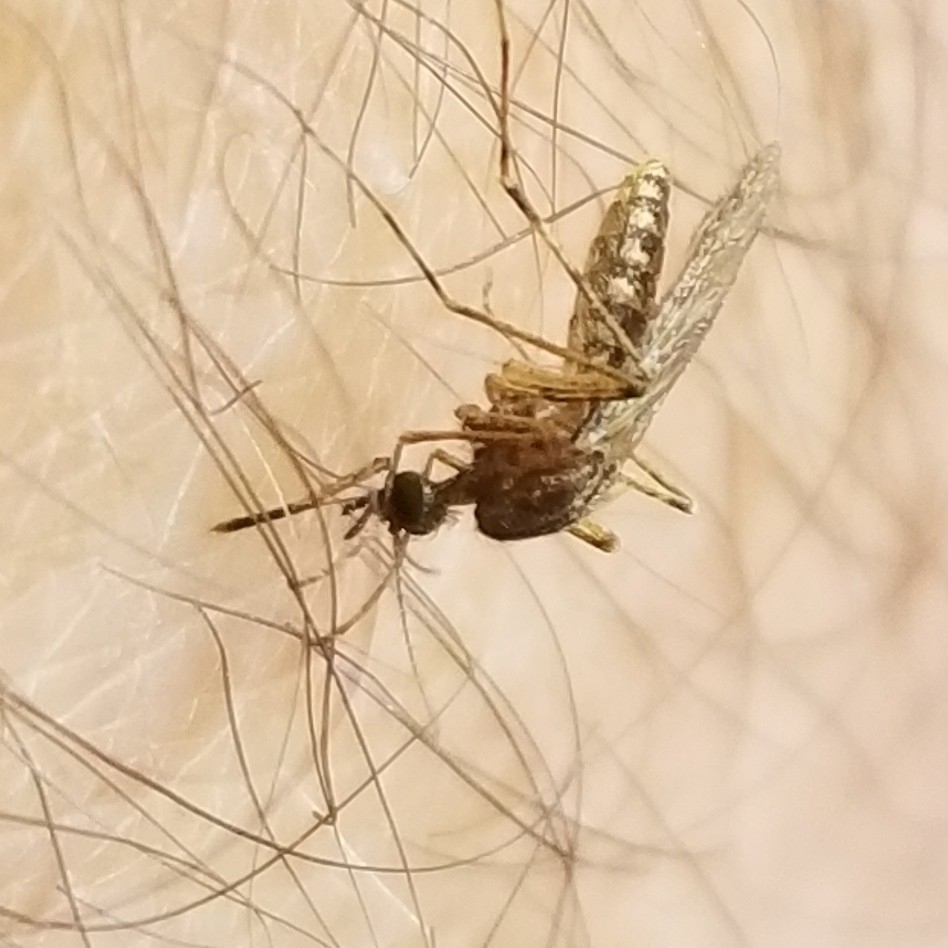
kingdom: Animalia
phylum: Arthropoda
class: Insecta
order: Diptera
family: Culicidae
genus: Coquillettidia
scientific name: Coquillettidia perturbans
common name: Cattail mosquito
